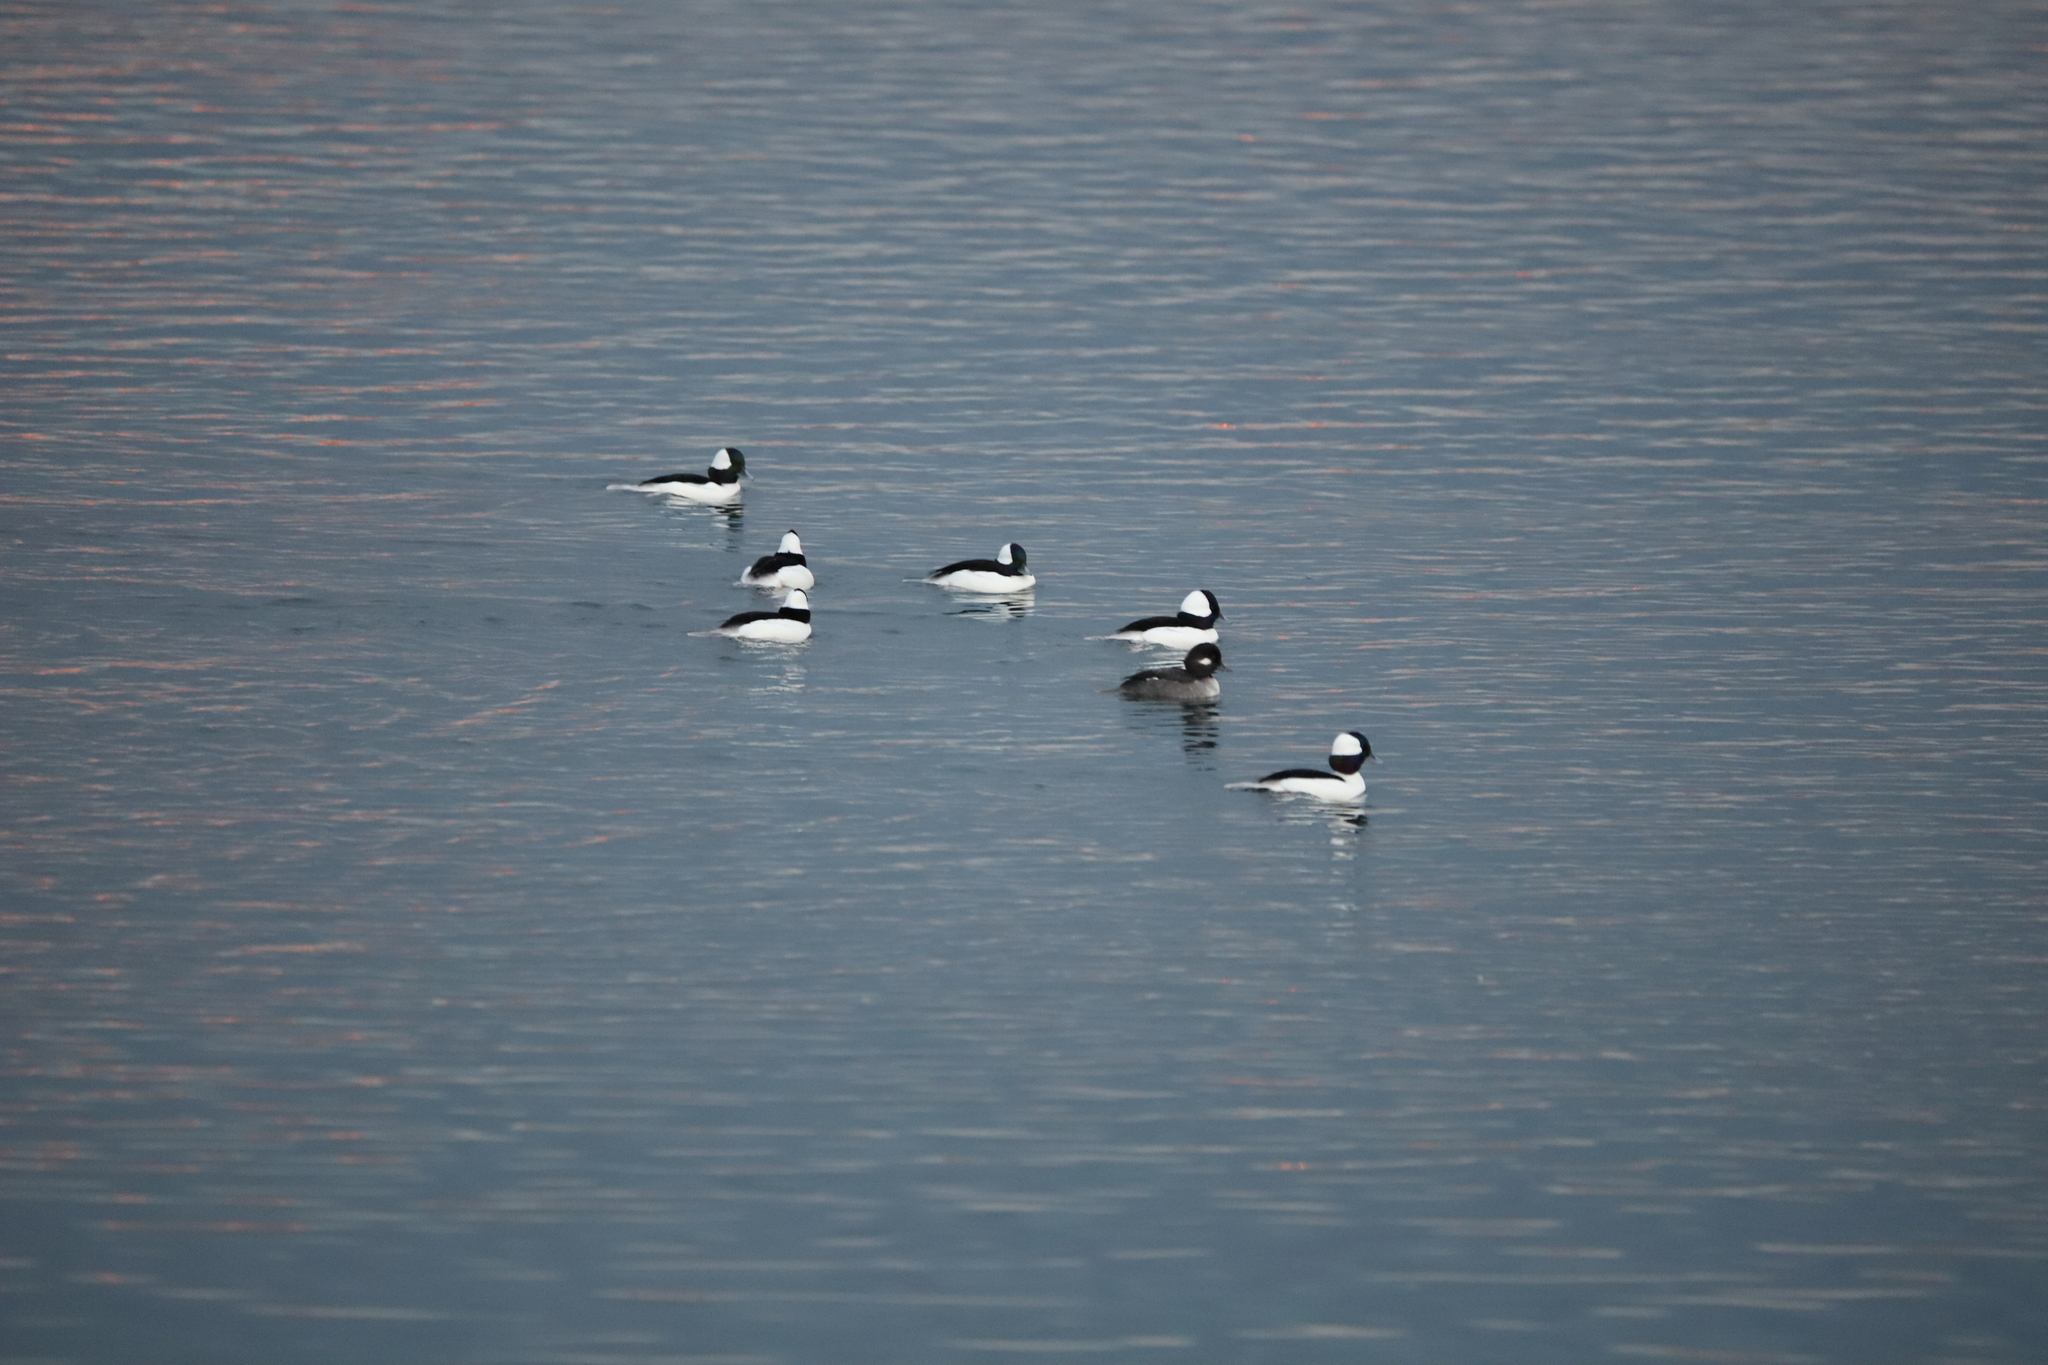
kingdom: Animalia
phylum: Chordata
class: Aves
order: Anseriformes
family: Anatidae
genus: Bucephala
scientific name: Bucephala albeola
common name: Bufflehead
